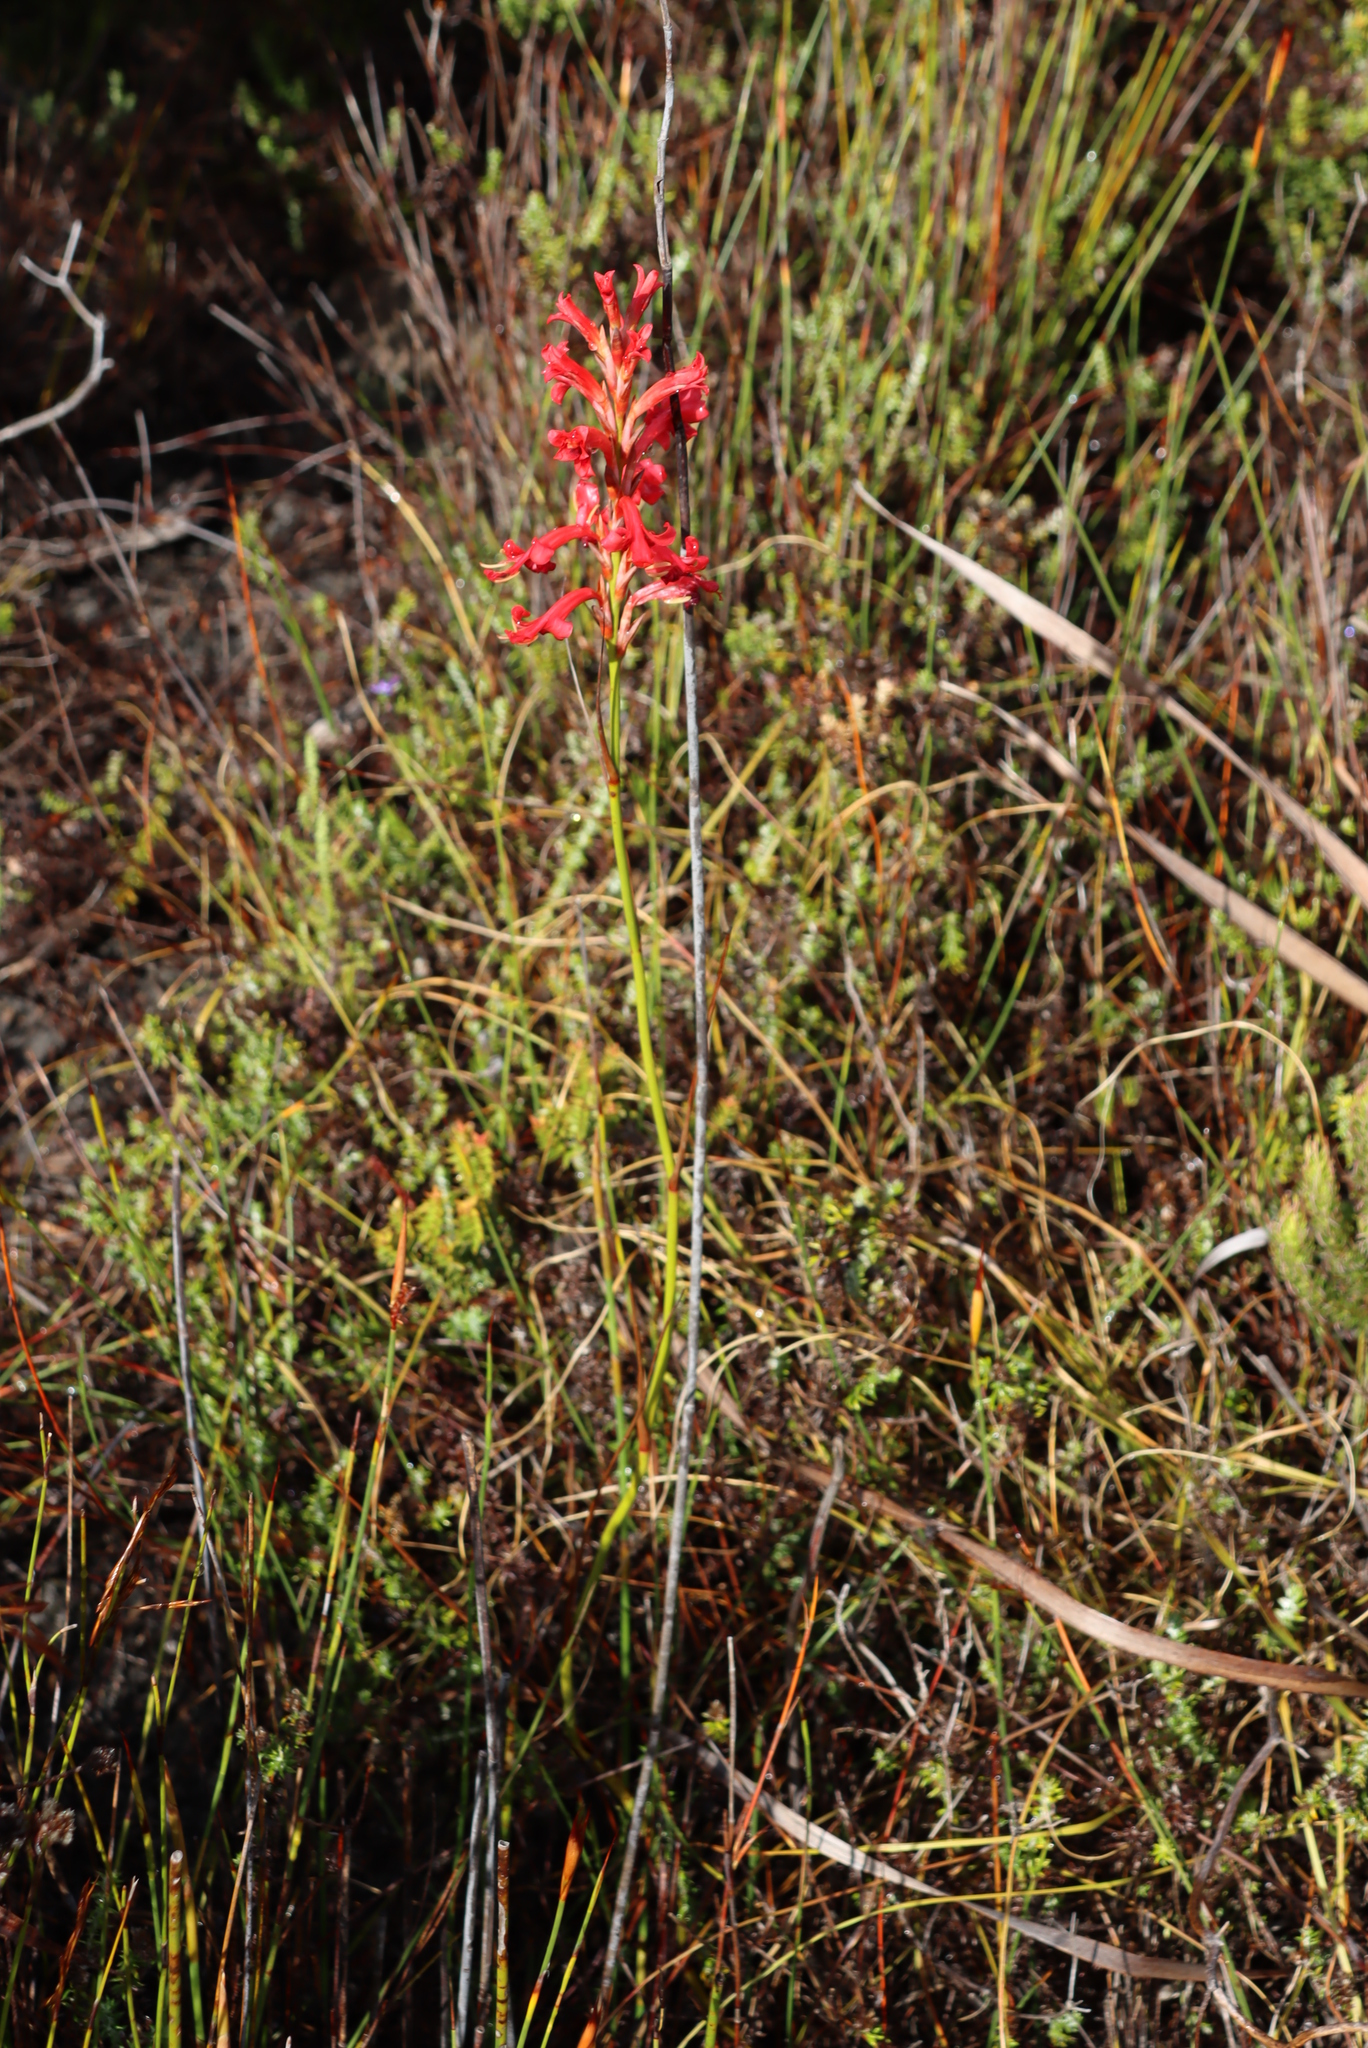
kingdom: Plantae
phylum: Tracheophyta
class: Liliopsida
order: Asparagales
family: Iridaceae
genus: Tritoniopsis
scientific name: Tritoniopsis triticea
